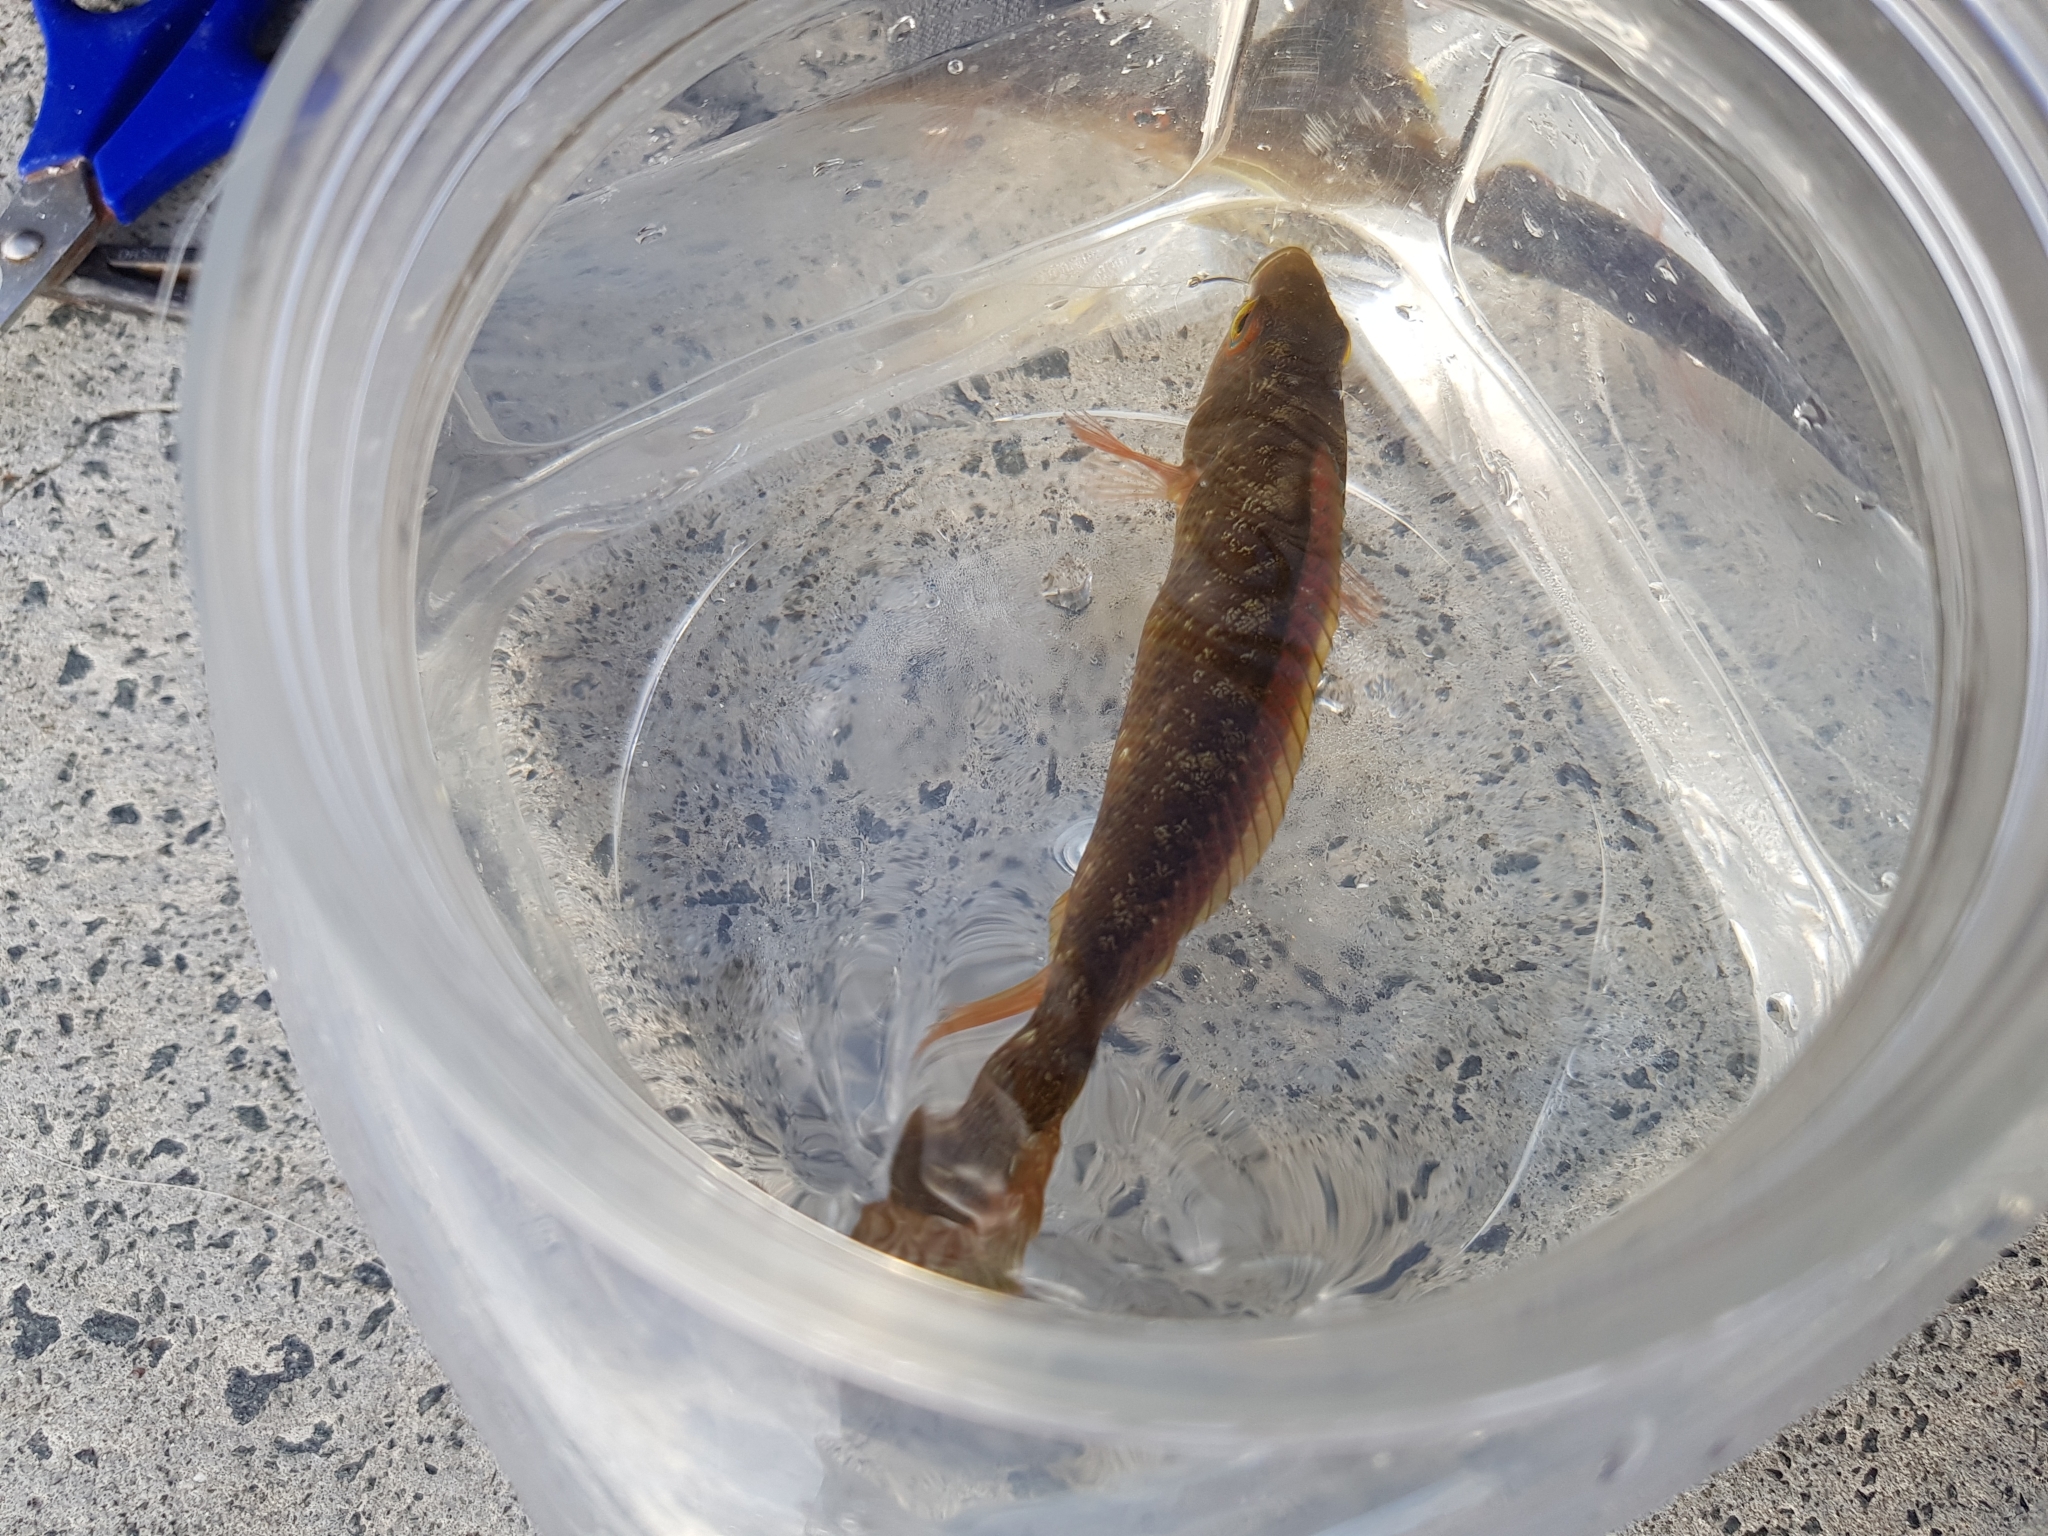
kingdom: Animalia
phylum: Chordata
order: Perciformes
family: Odacidae
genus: Neoodax
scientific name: Neoodax balteatus
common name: Ground mullet
